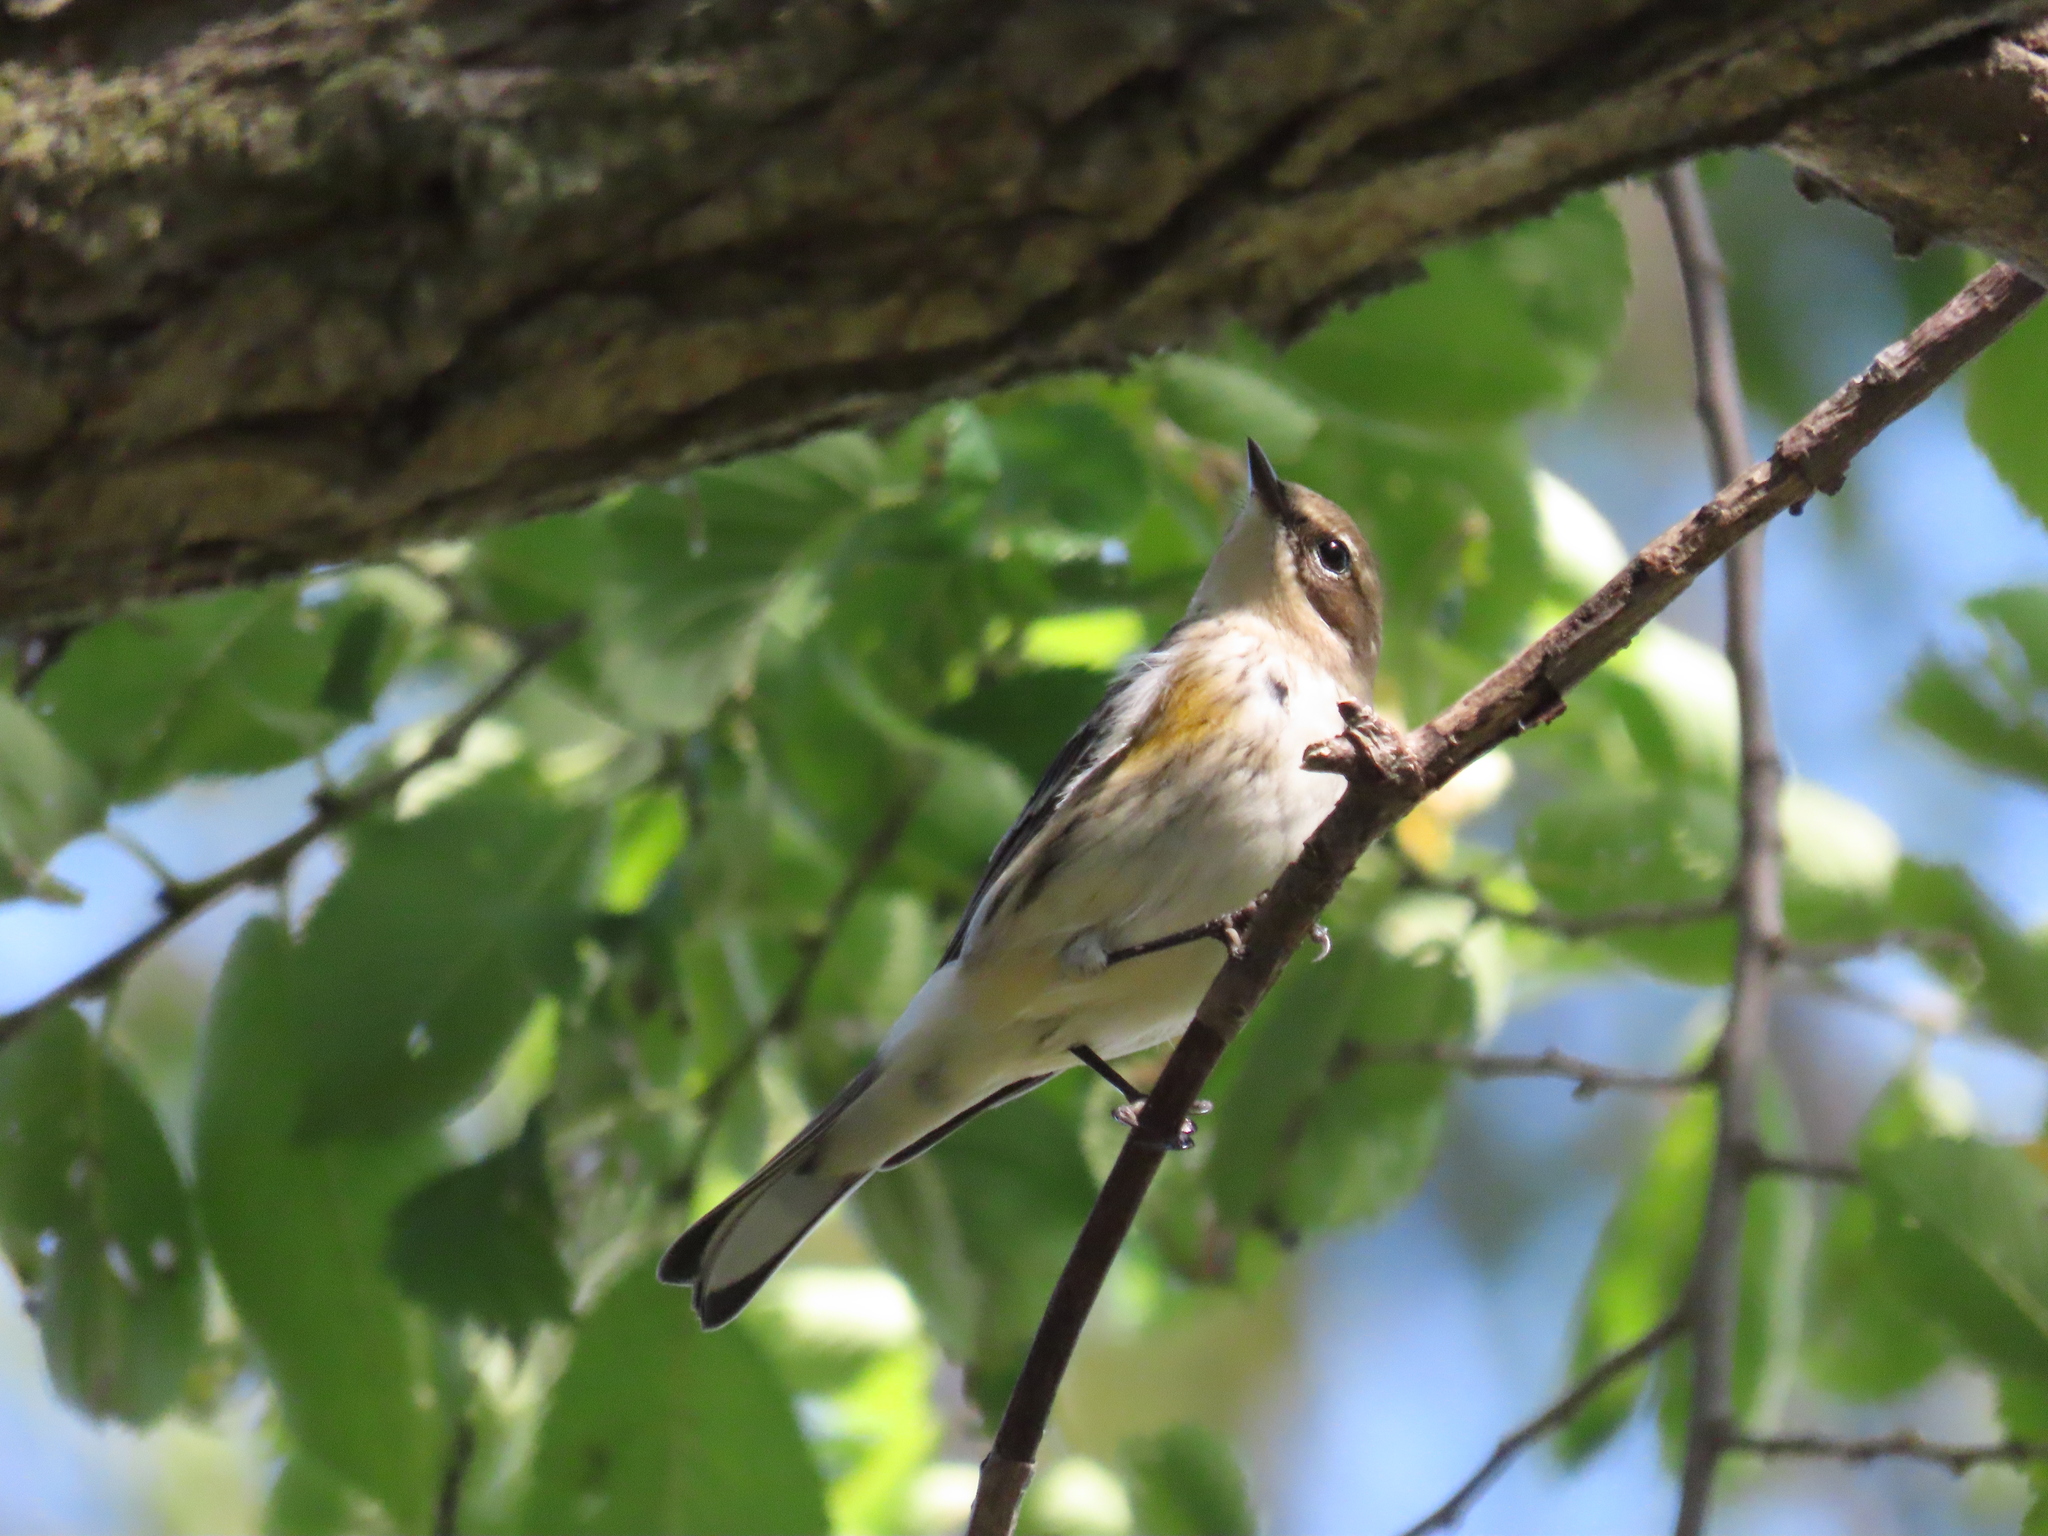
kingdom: Animalia
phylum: Chordata
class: Aves
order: Passeriformes
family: Parulidae
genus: Setophaga
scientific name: Setophaga coronata
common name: Myrtle warbler
